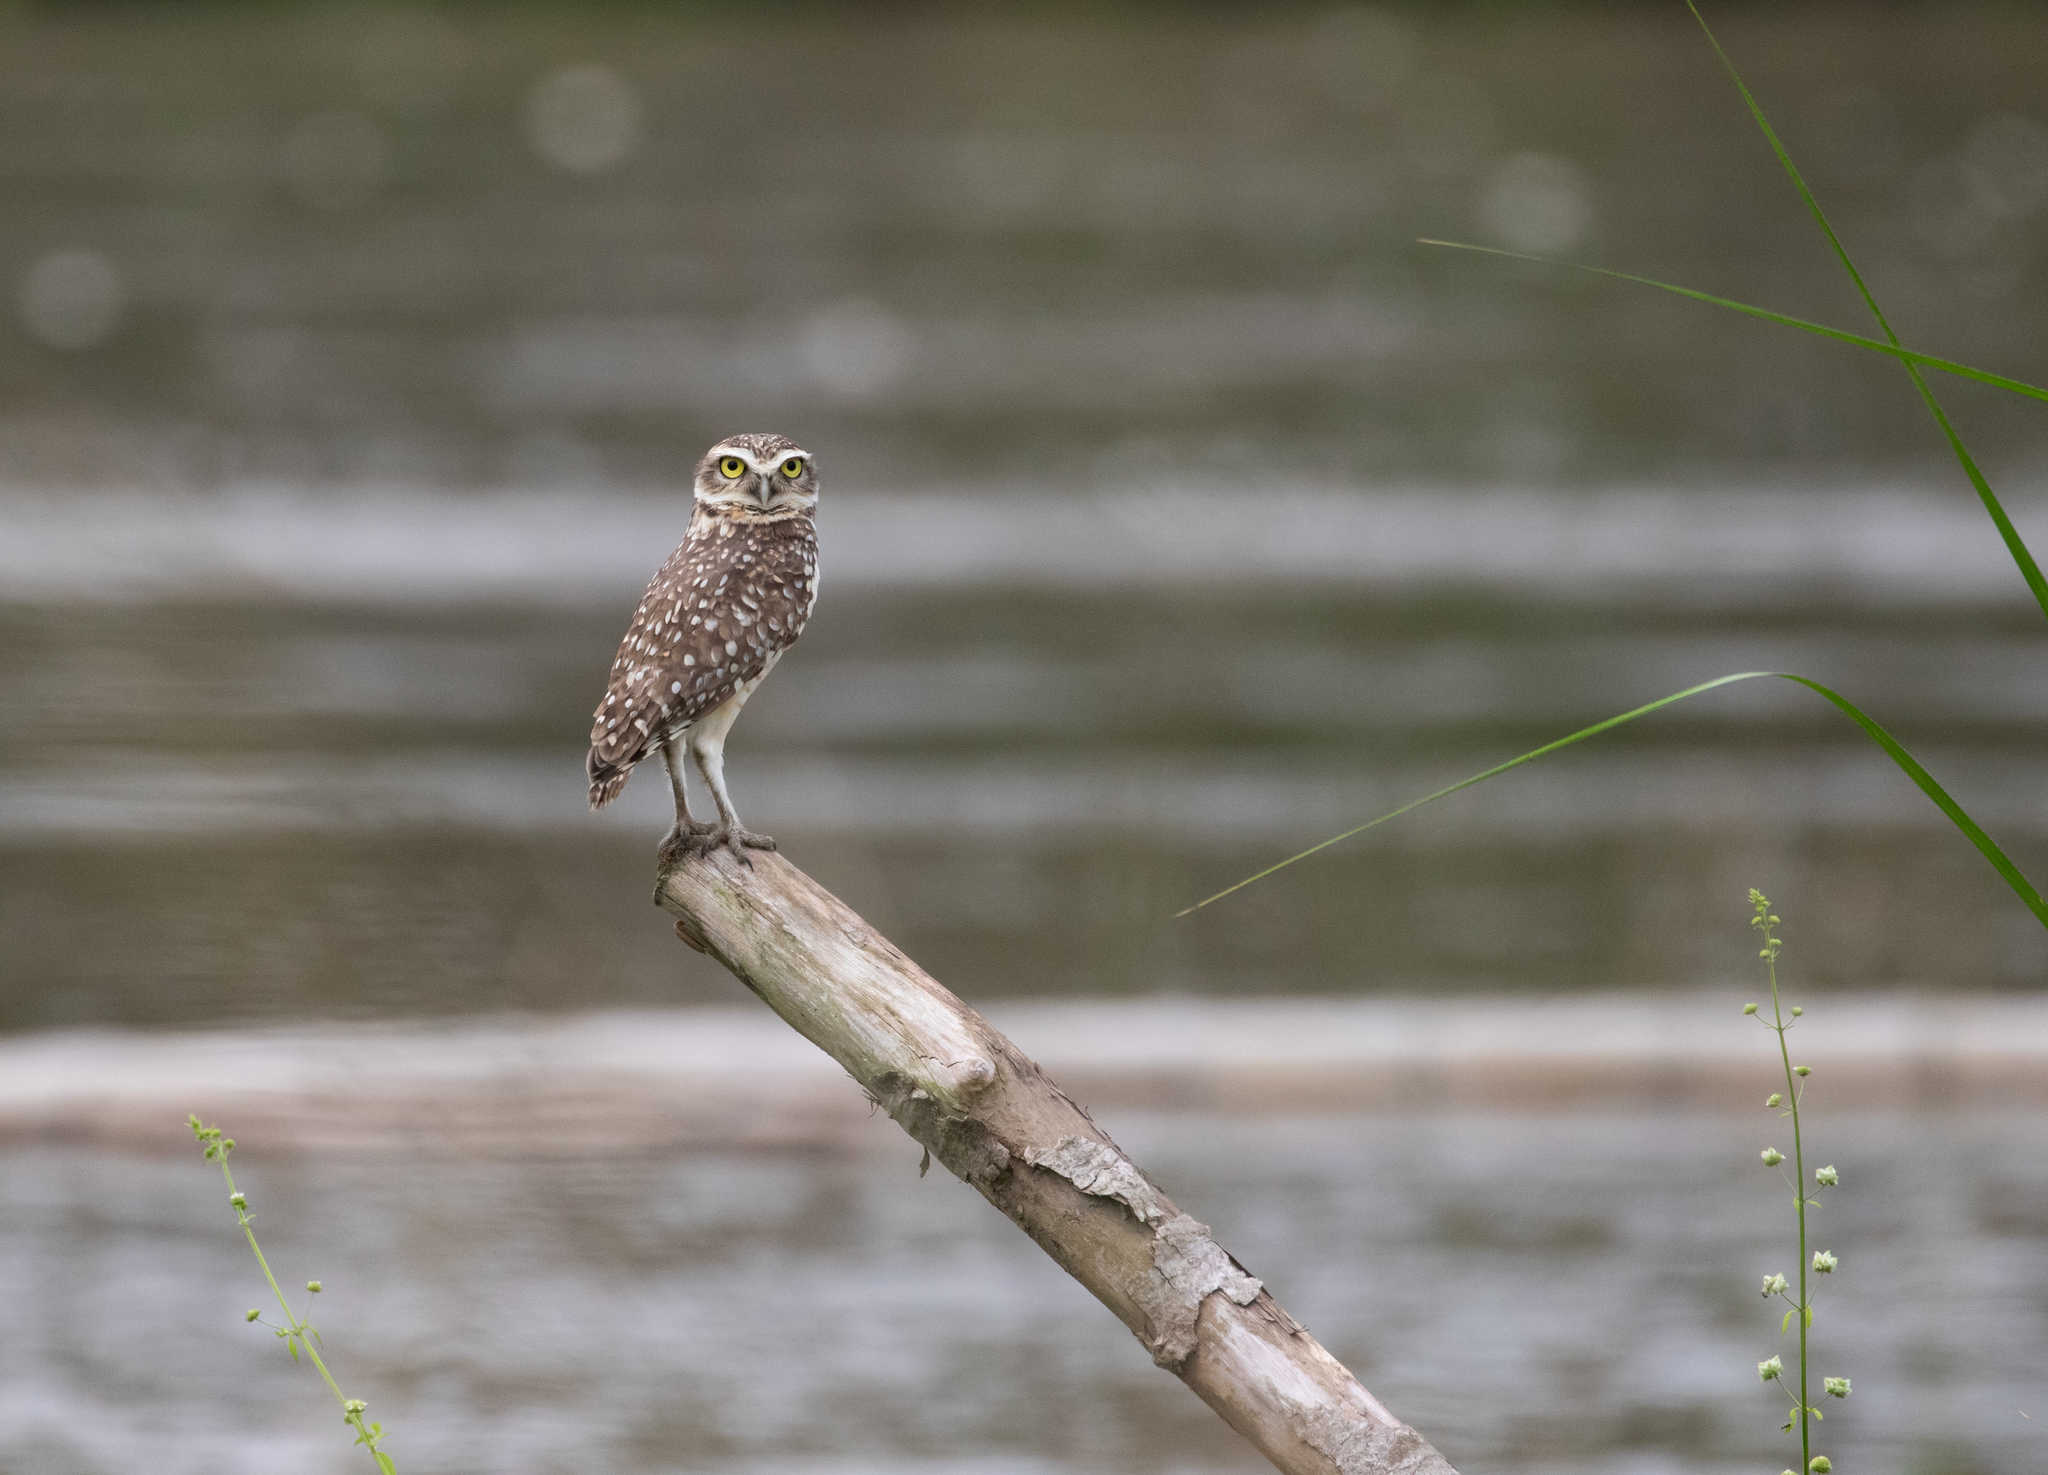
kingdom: Animalia
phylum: Chordata
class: Aves
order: Strigiformes
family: Strigidae
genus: Athene
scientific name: Athene cunicularia
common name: Burrowing owl
